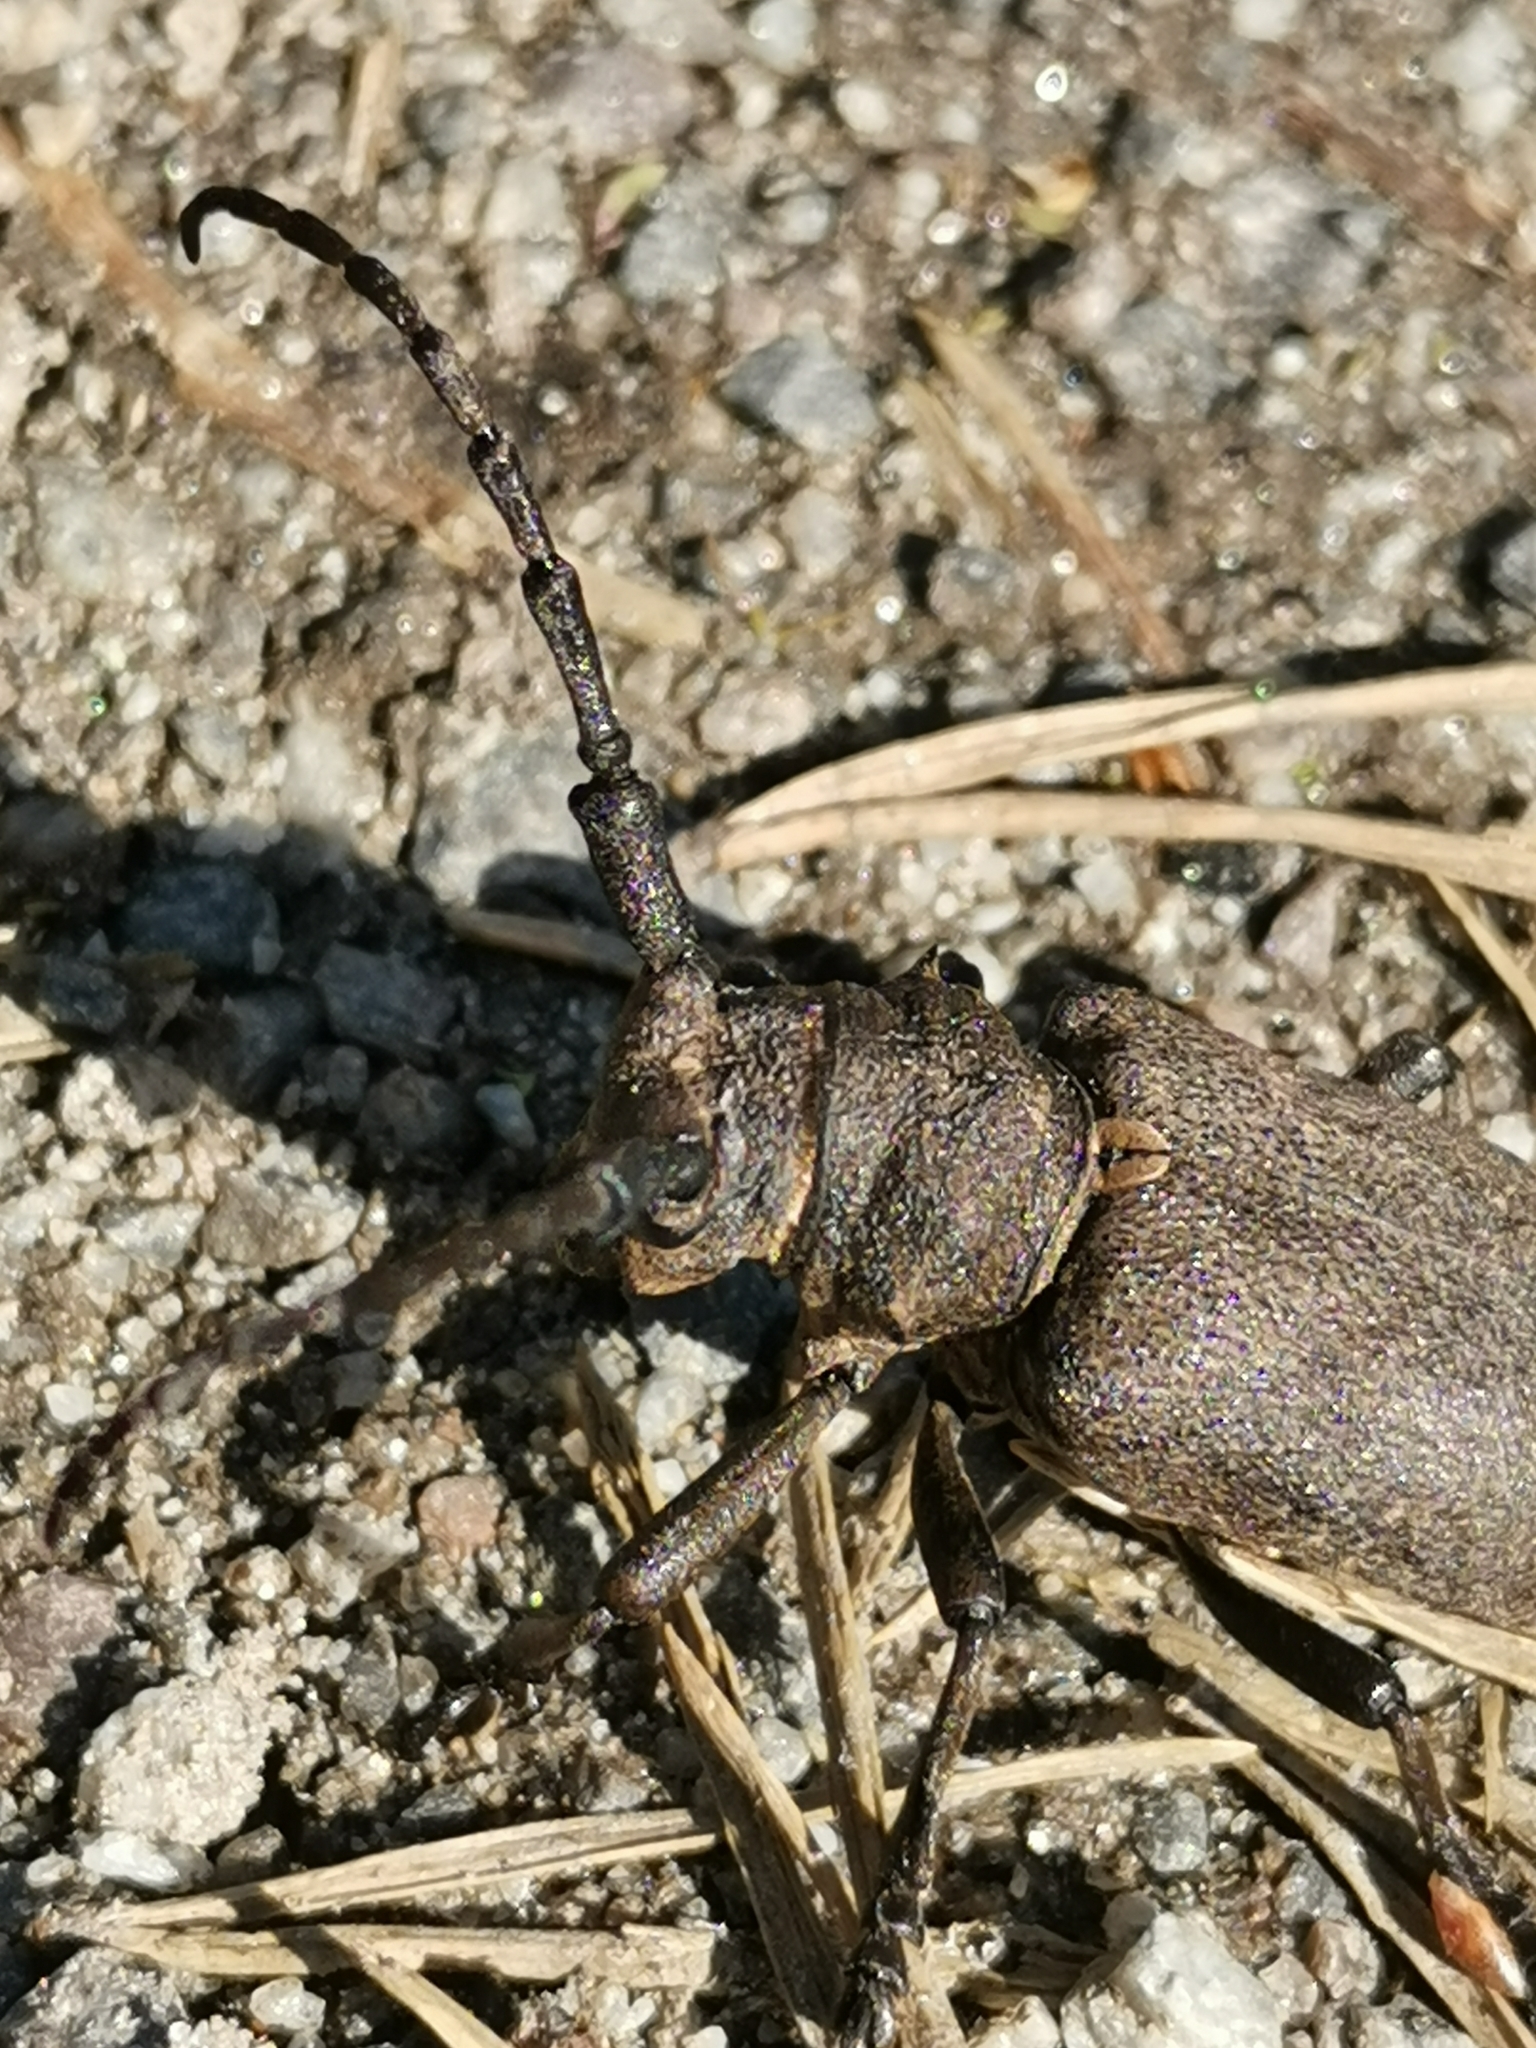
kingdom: Animalia
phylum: Arthropoda
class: Insecta
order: Coleoptera
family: Cerambycidae
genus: Lamia
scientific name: Lamia textor
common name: Weaver beetle
